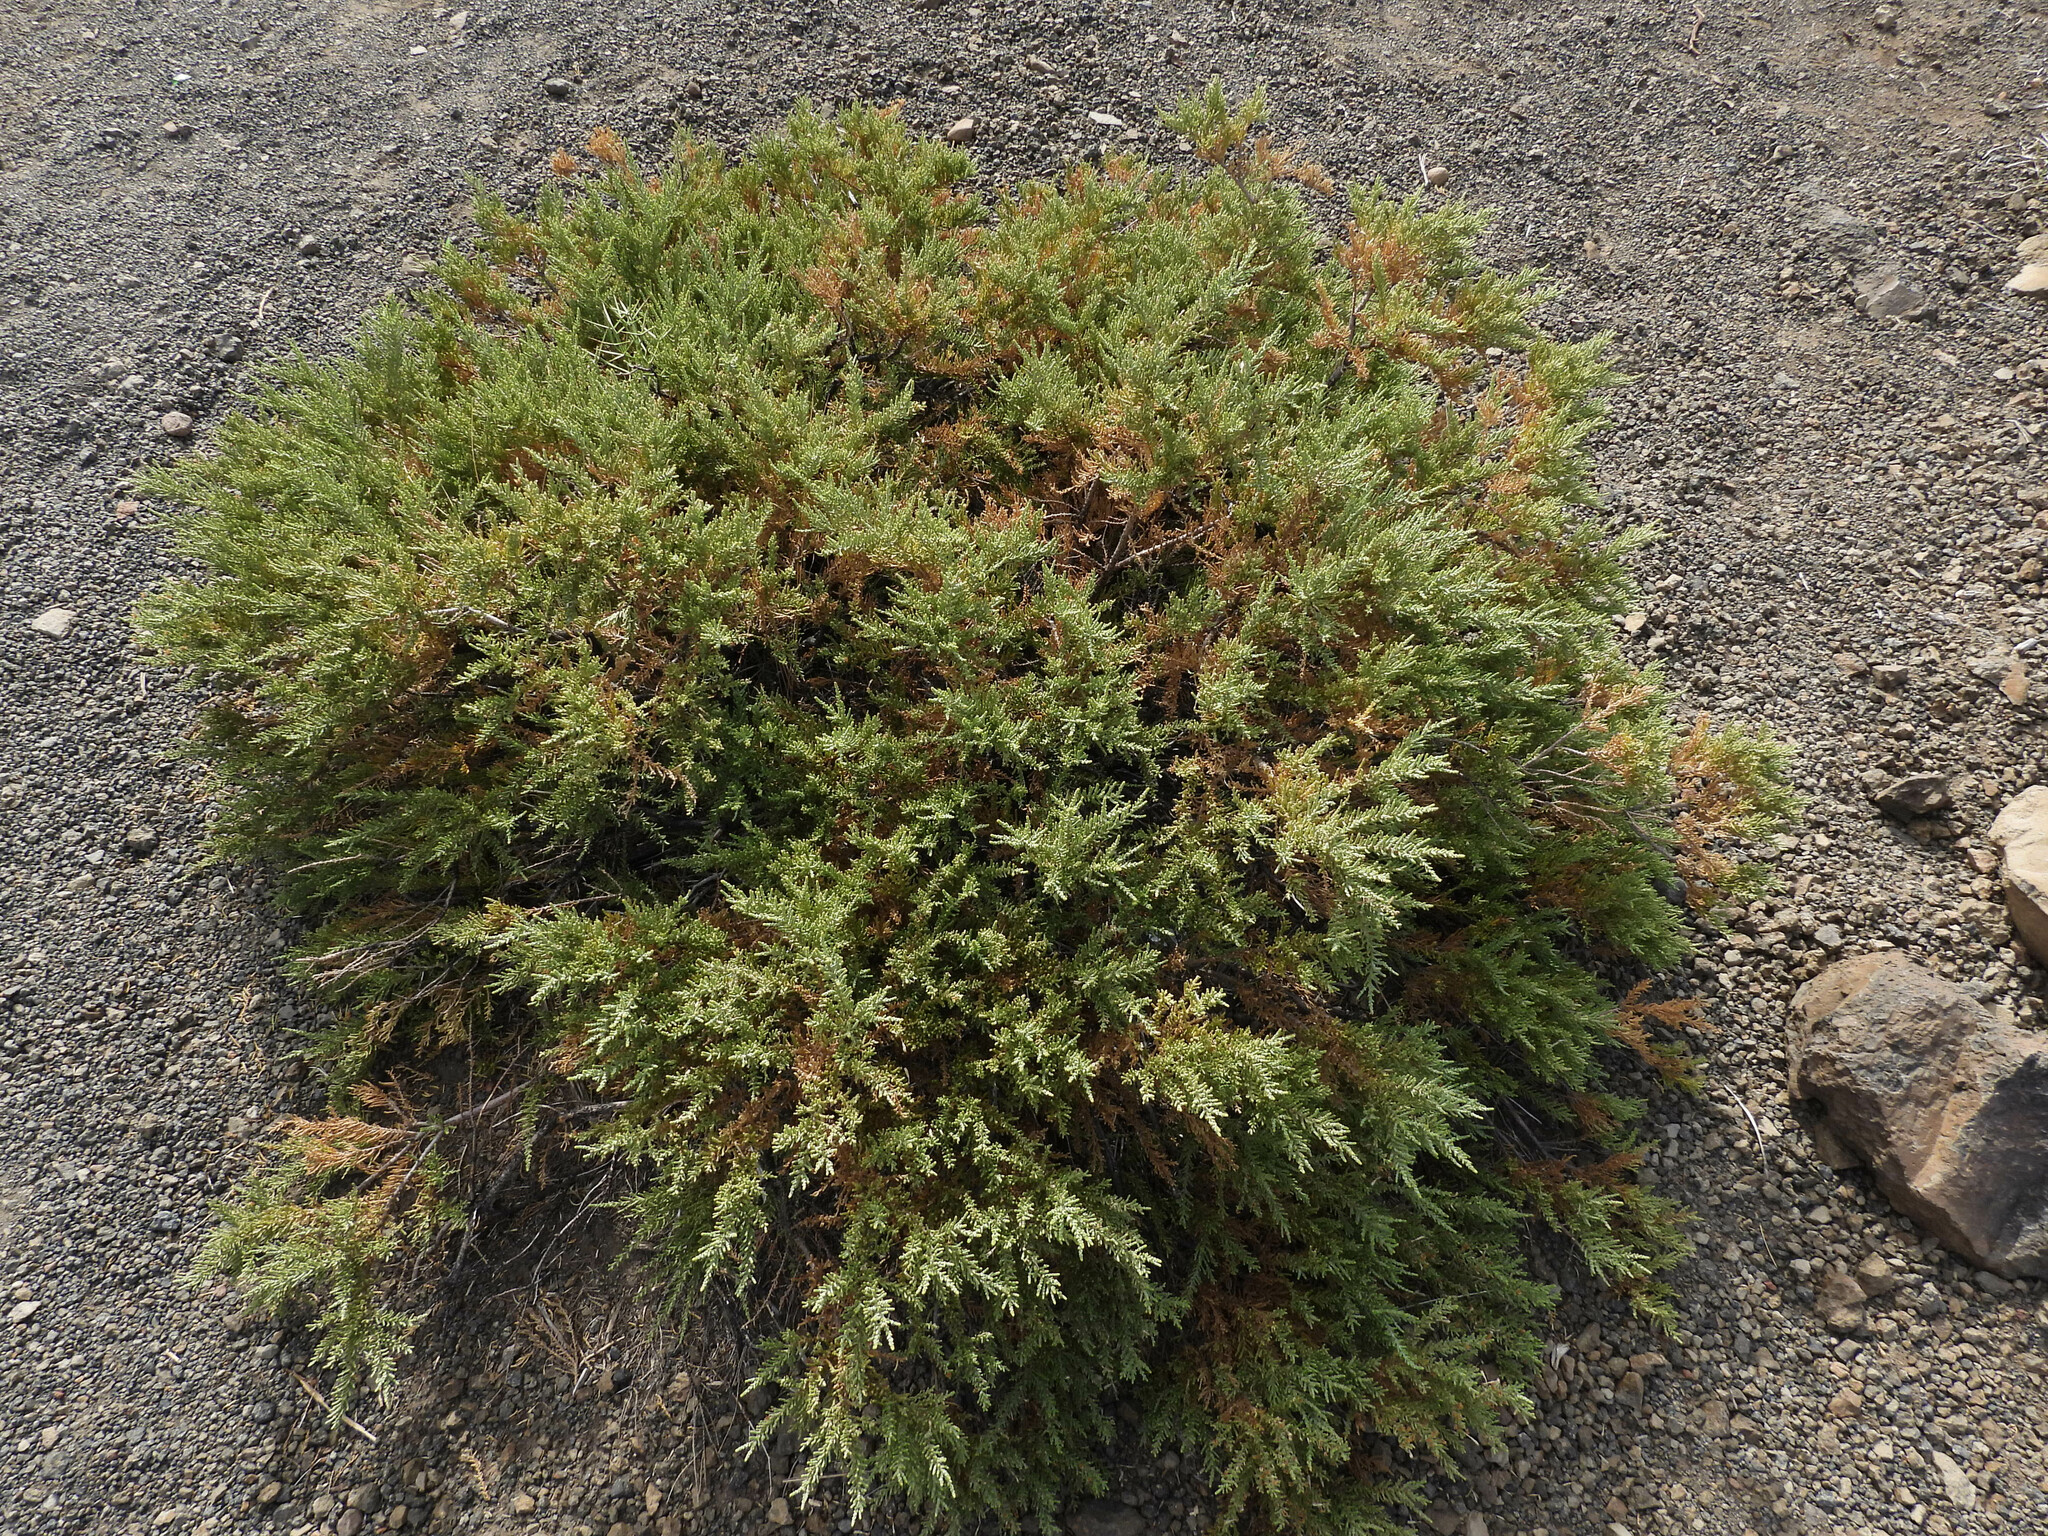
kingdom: Plantae
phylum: Tracheophyta
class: Magnoliopsida
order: Solanales
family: Solanaceae
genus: Fabiana
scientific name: Fabiana imbricata
